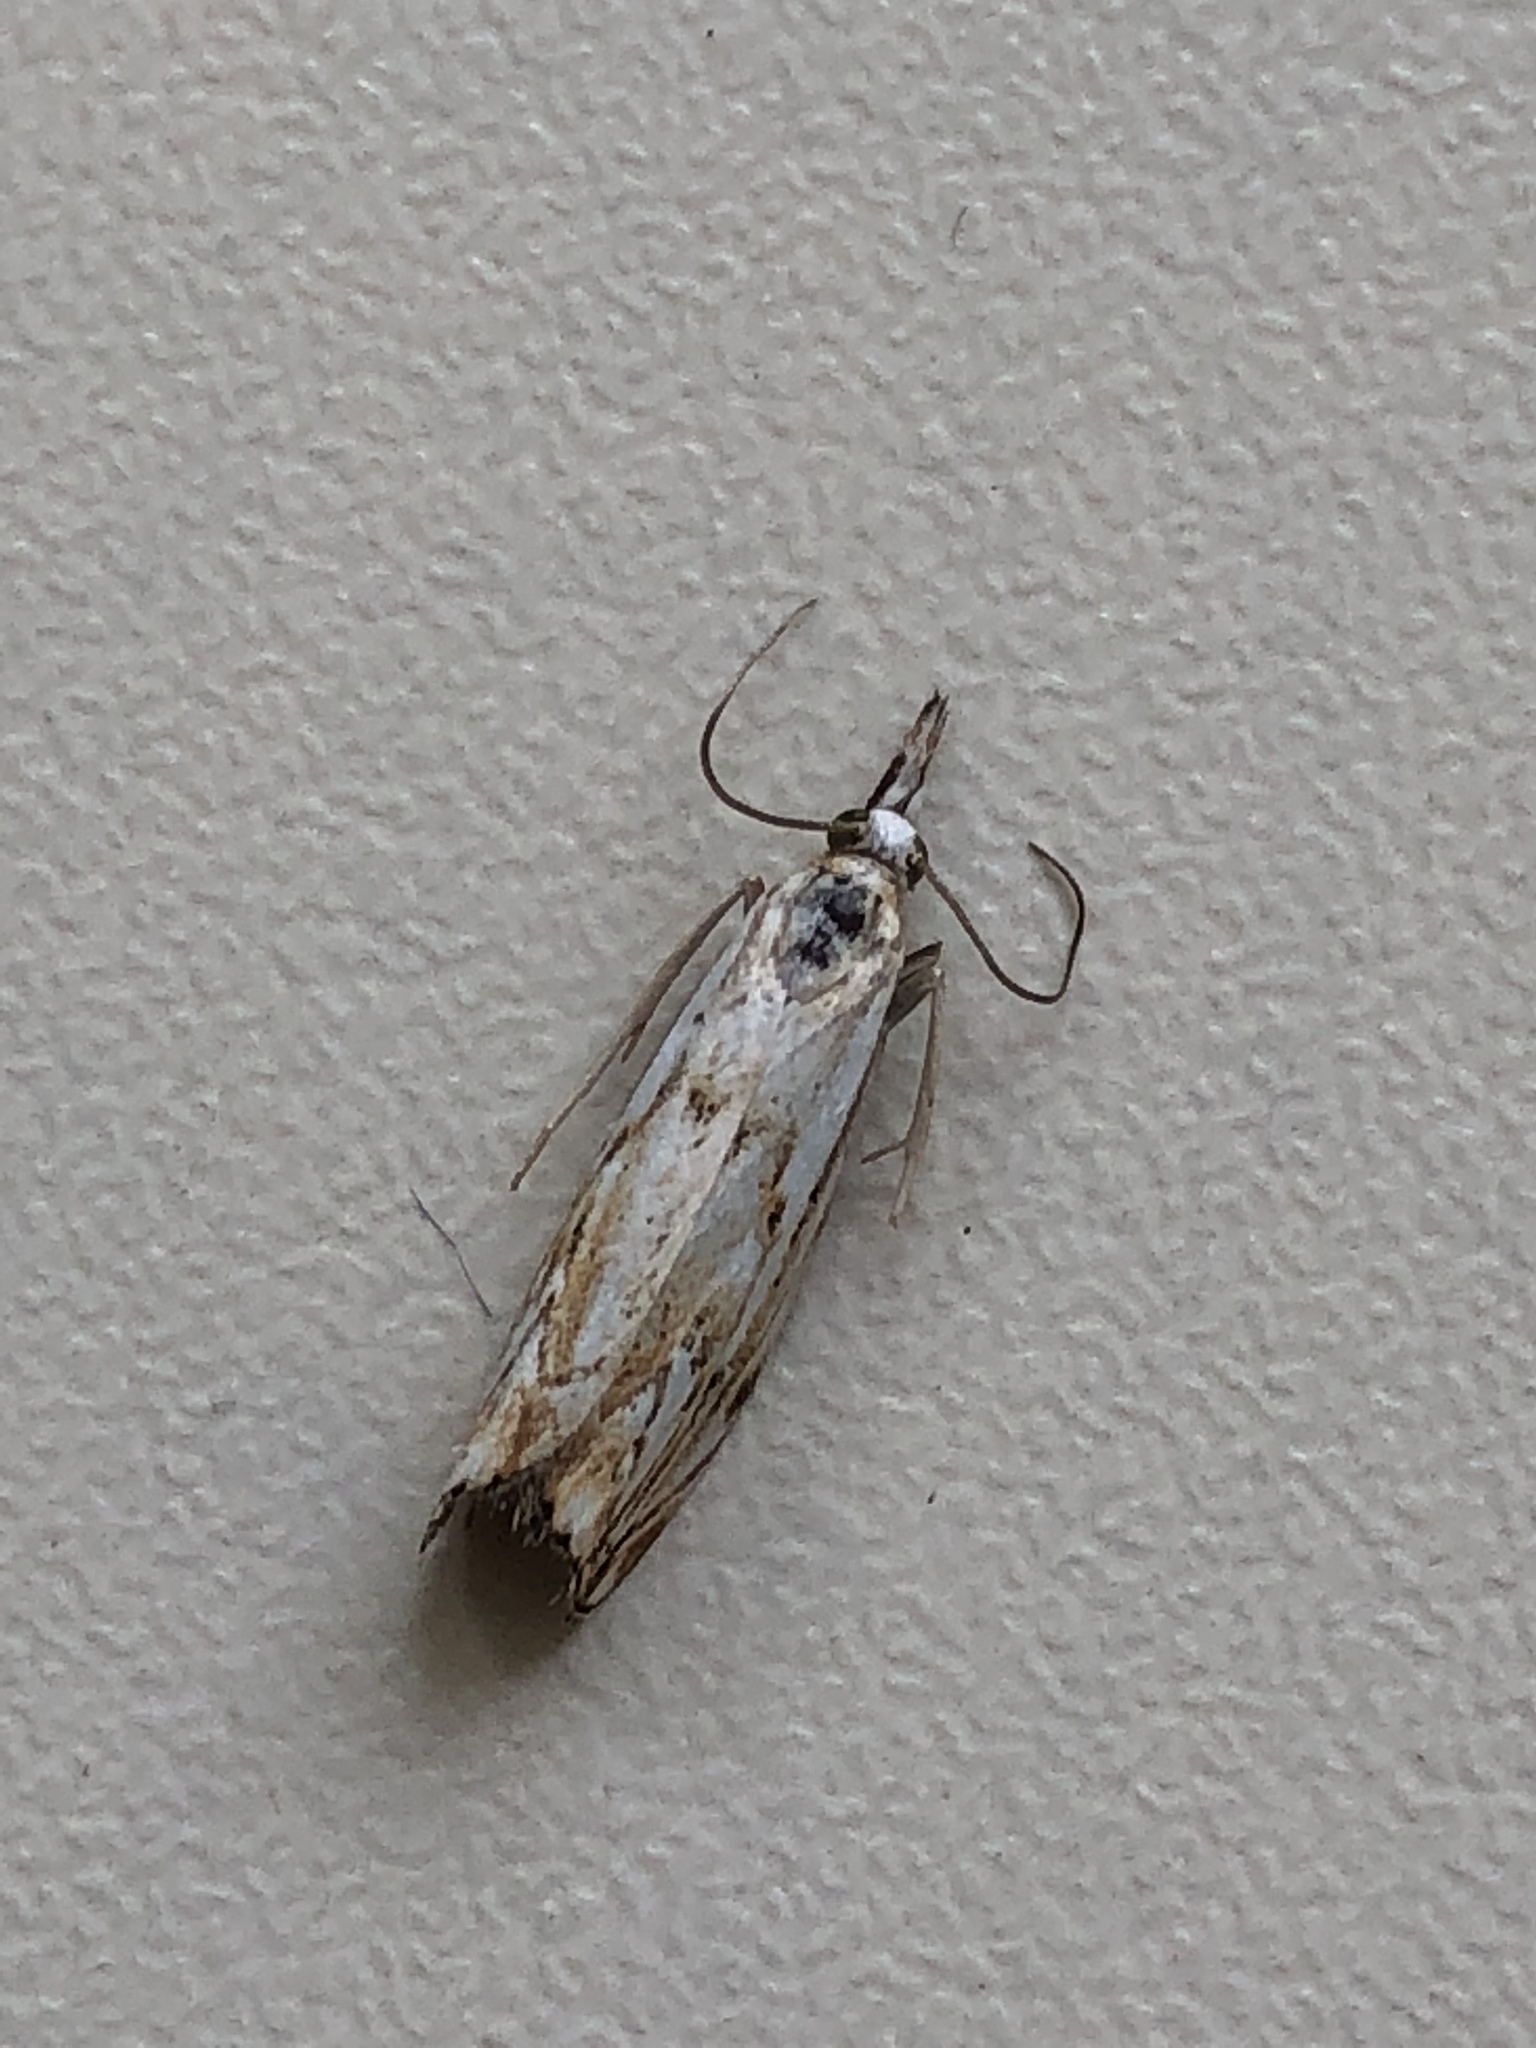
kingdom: Animalia
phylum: Arthropoda
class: Insecta
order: Lepidoptera
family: Crambidae
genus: Catoptria
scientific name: Catoptria falsella
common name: Chequered grass-veneer
